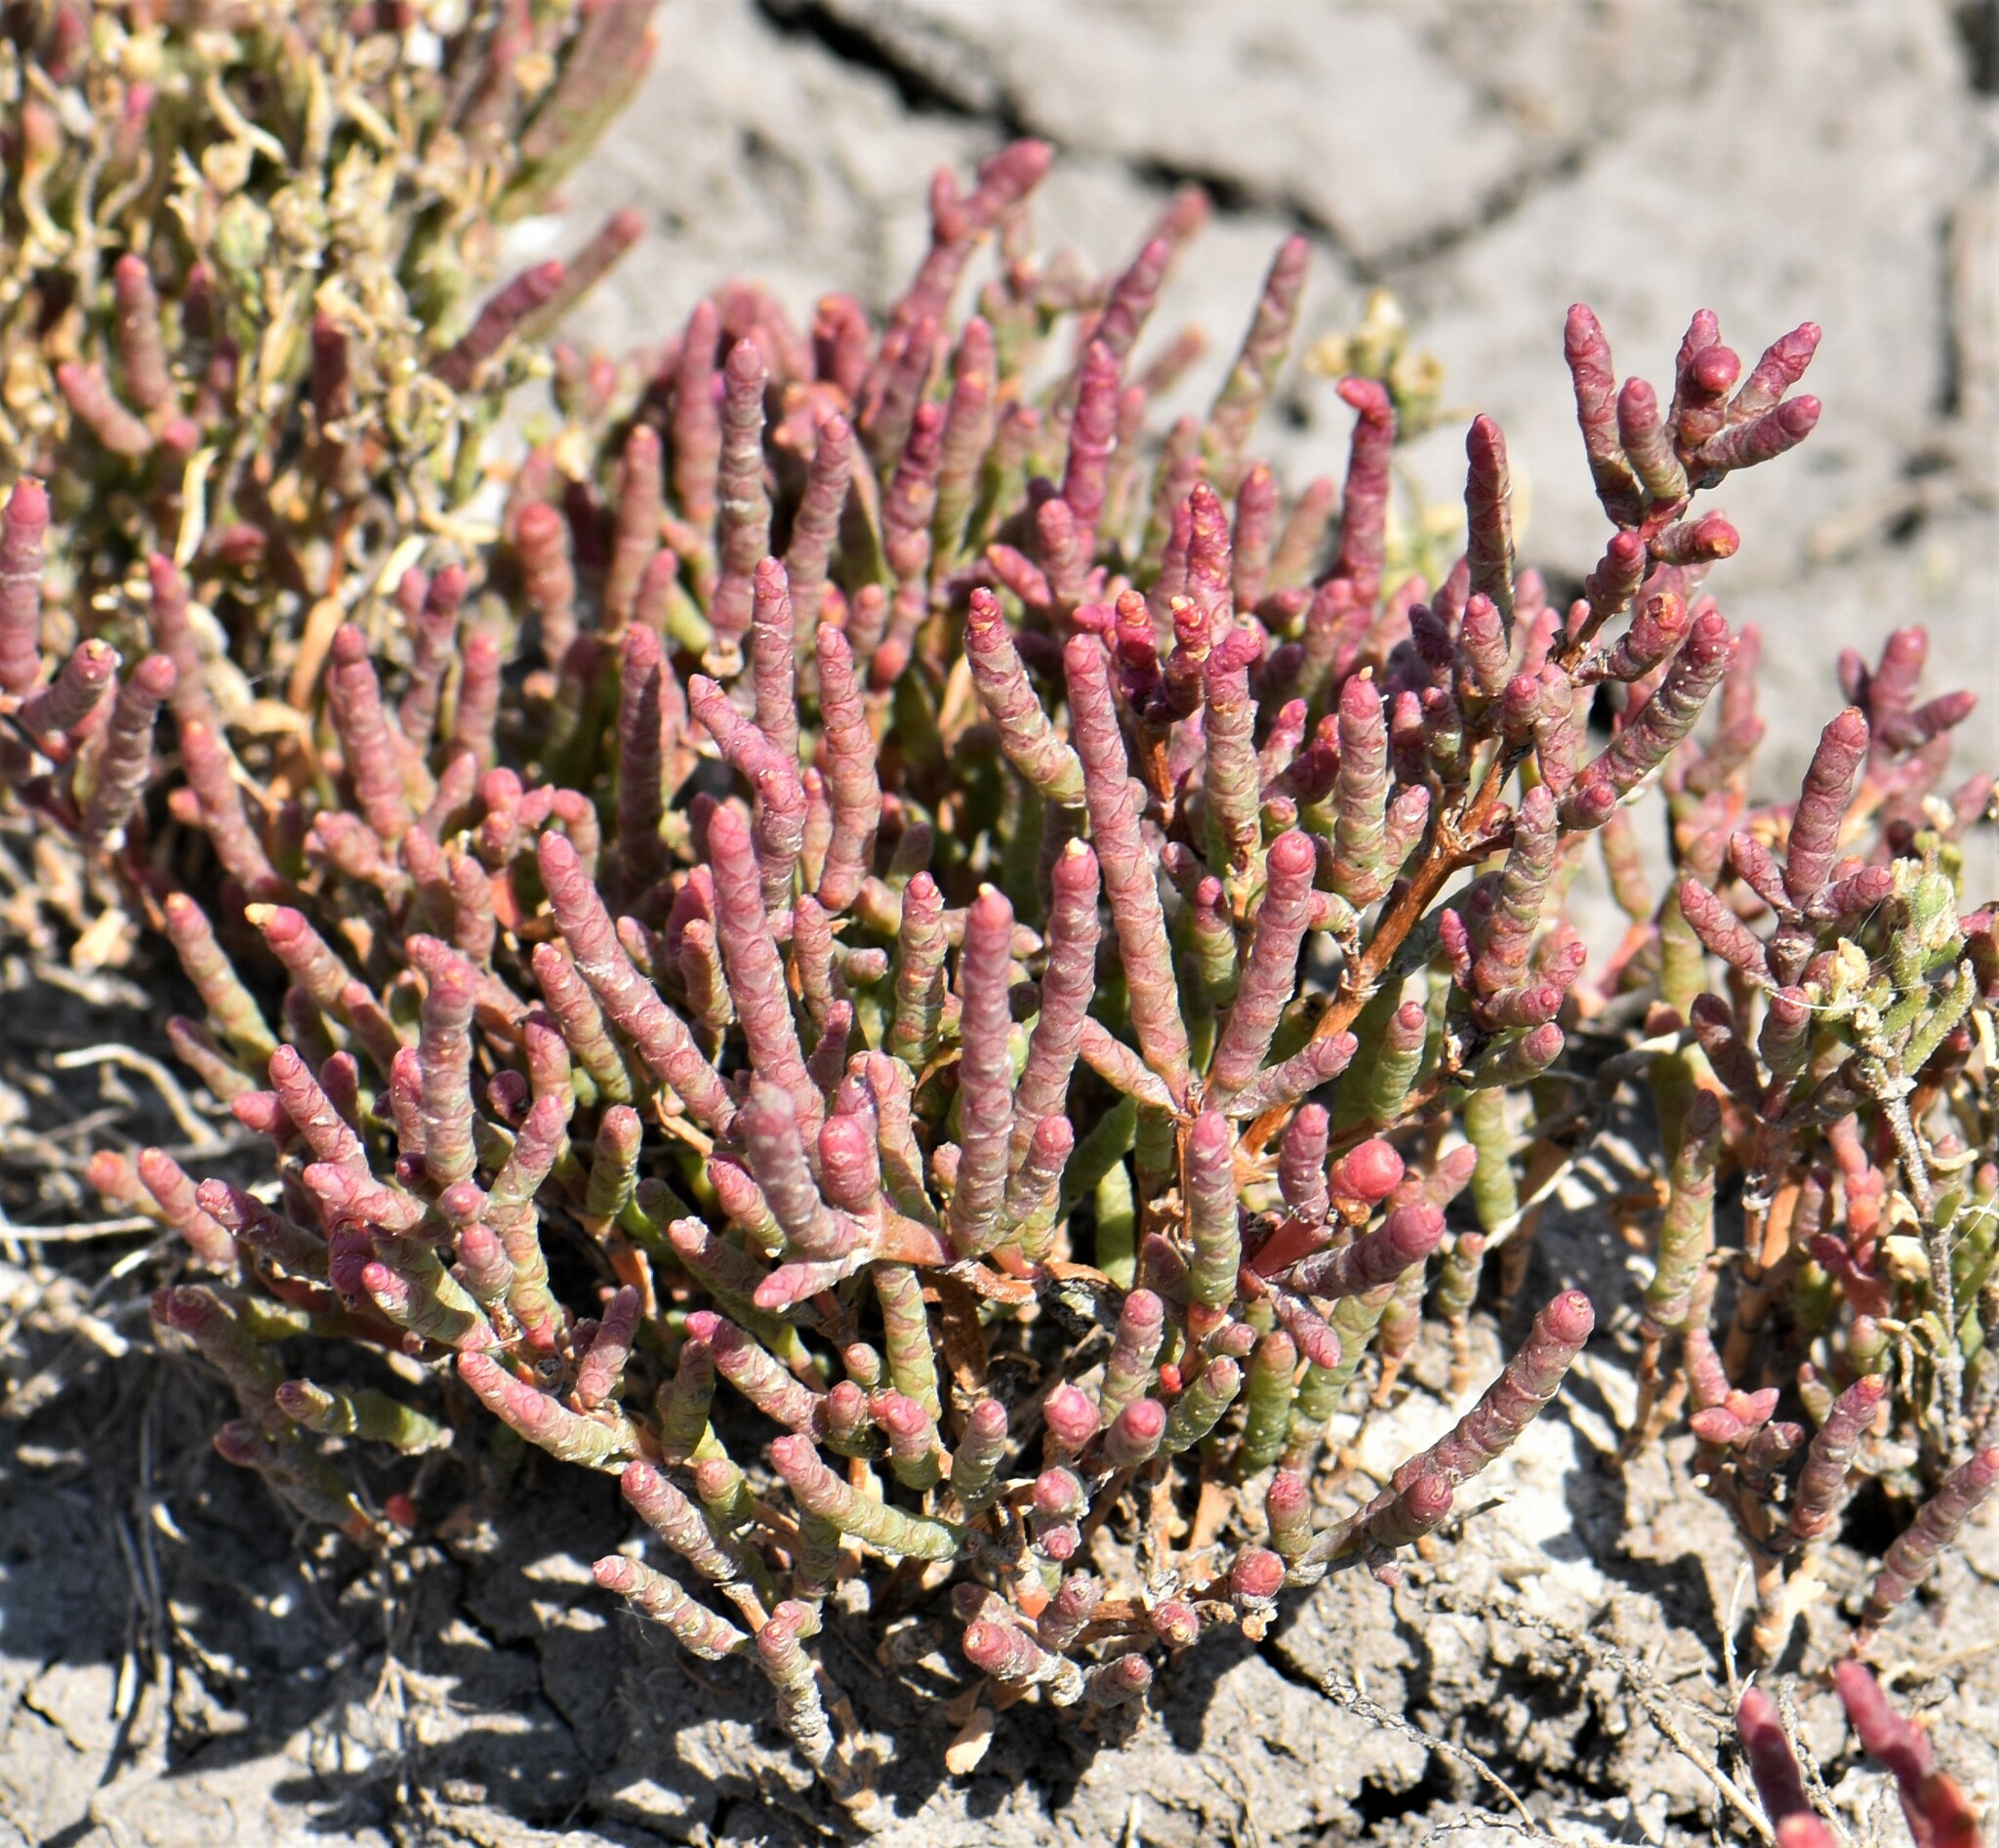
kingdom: Plantae
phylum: Tracheophyta
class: Magnoliopsida
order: Caryophyllales
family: Amaranthaceae
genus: Salicornia
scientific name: Salicornia rubra
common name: Red glasswort
